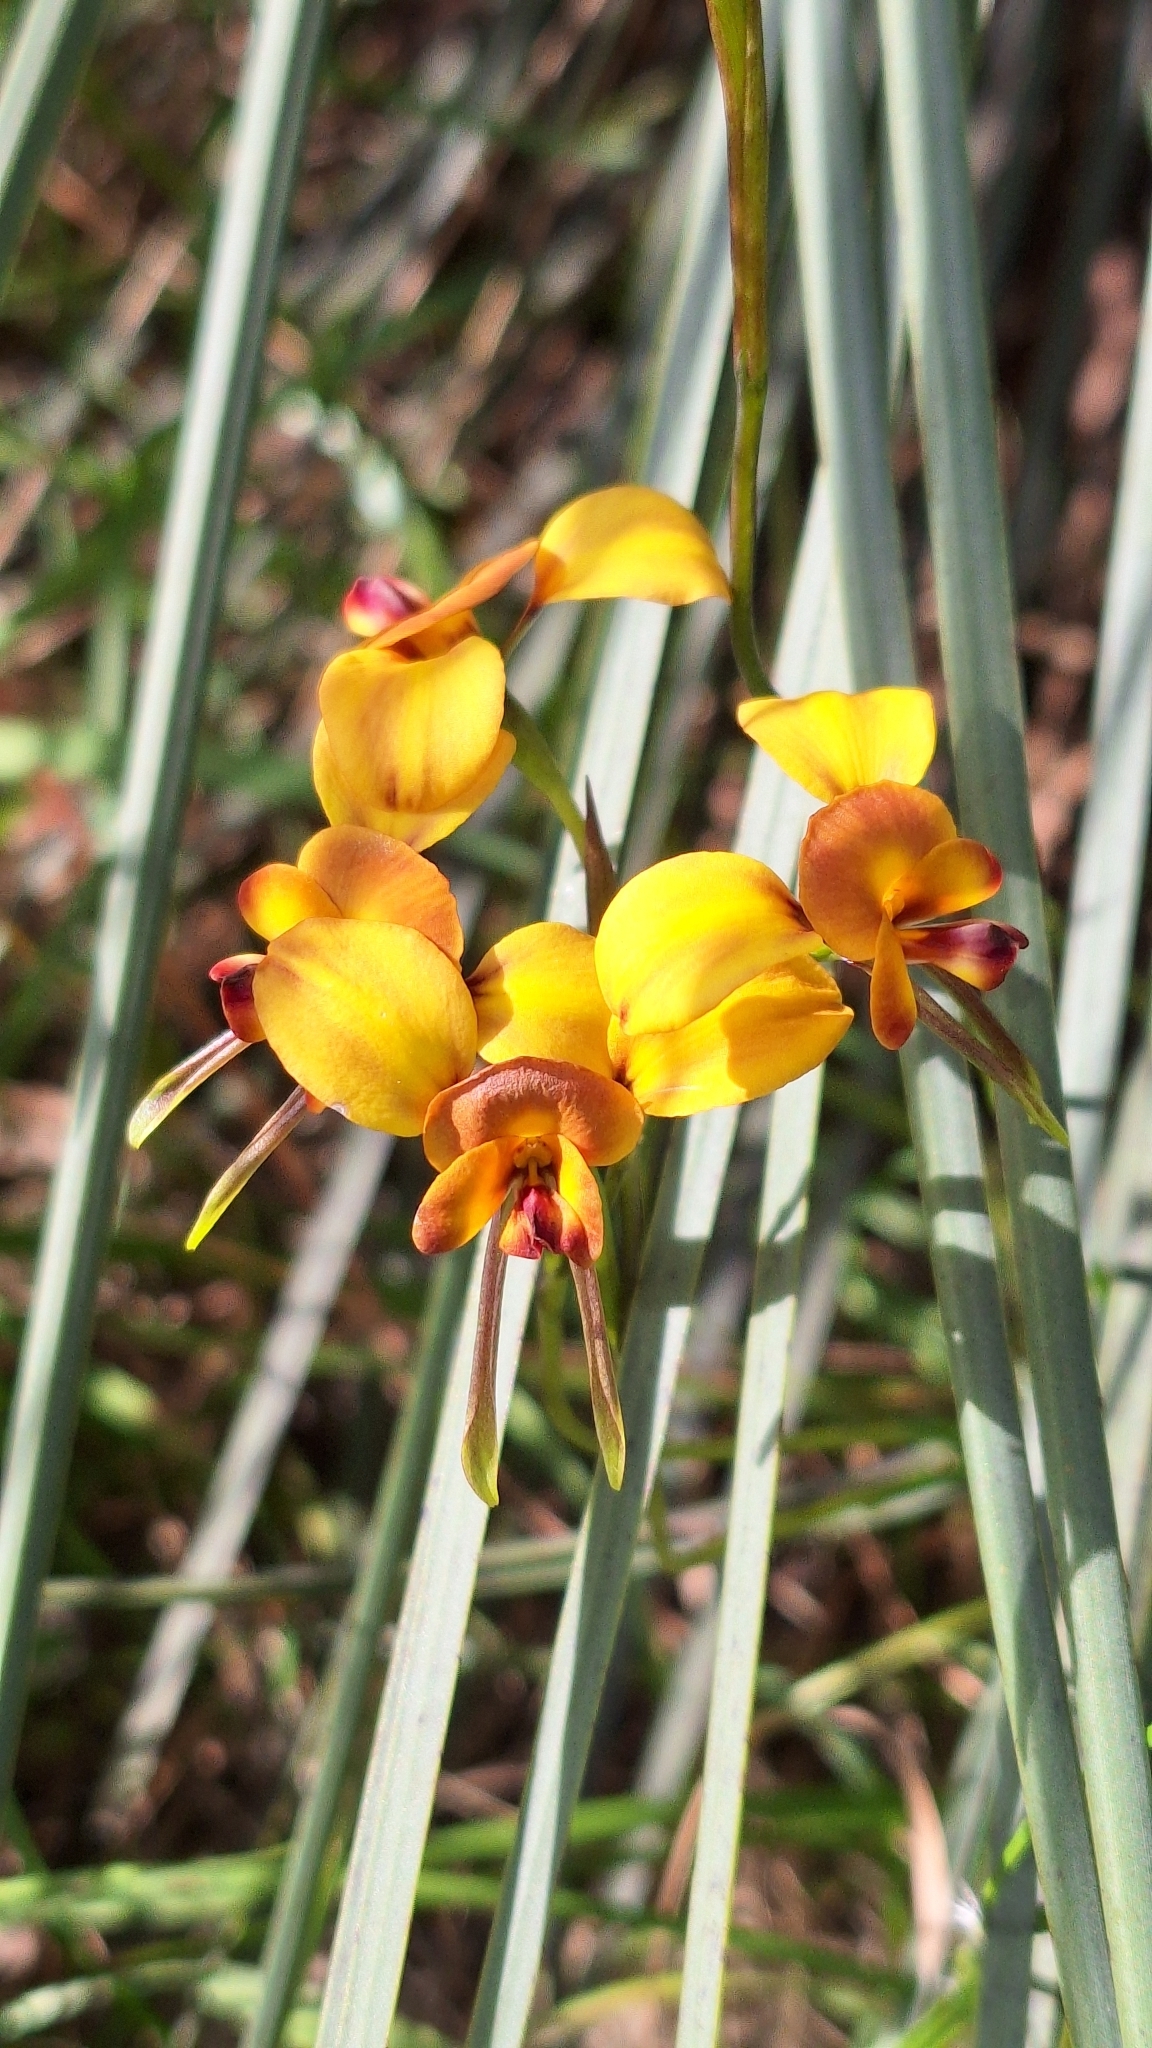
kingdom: Plantae
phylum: Tracheophyta
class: Liliopsida
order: Asparagales
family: Orchidaceae
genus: Diuris
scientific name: Diuris orientis
